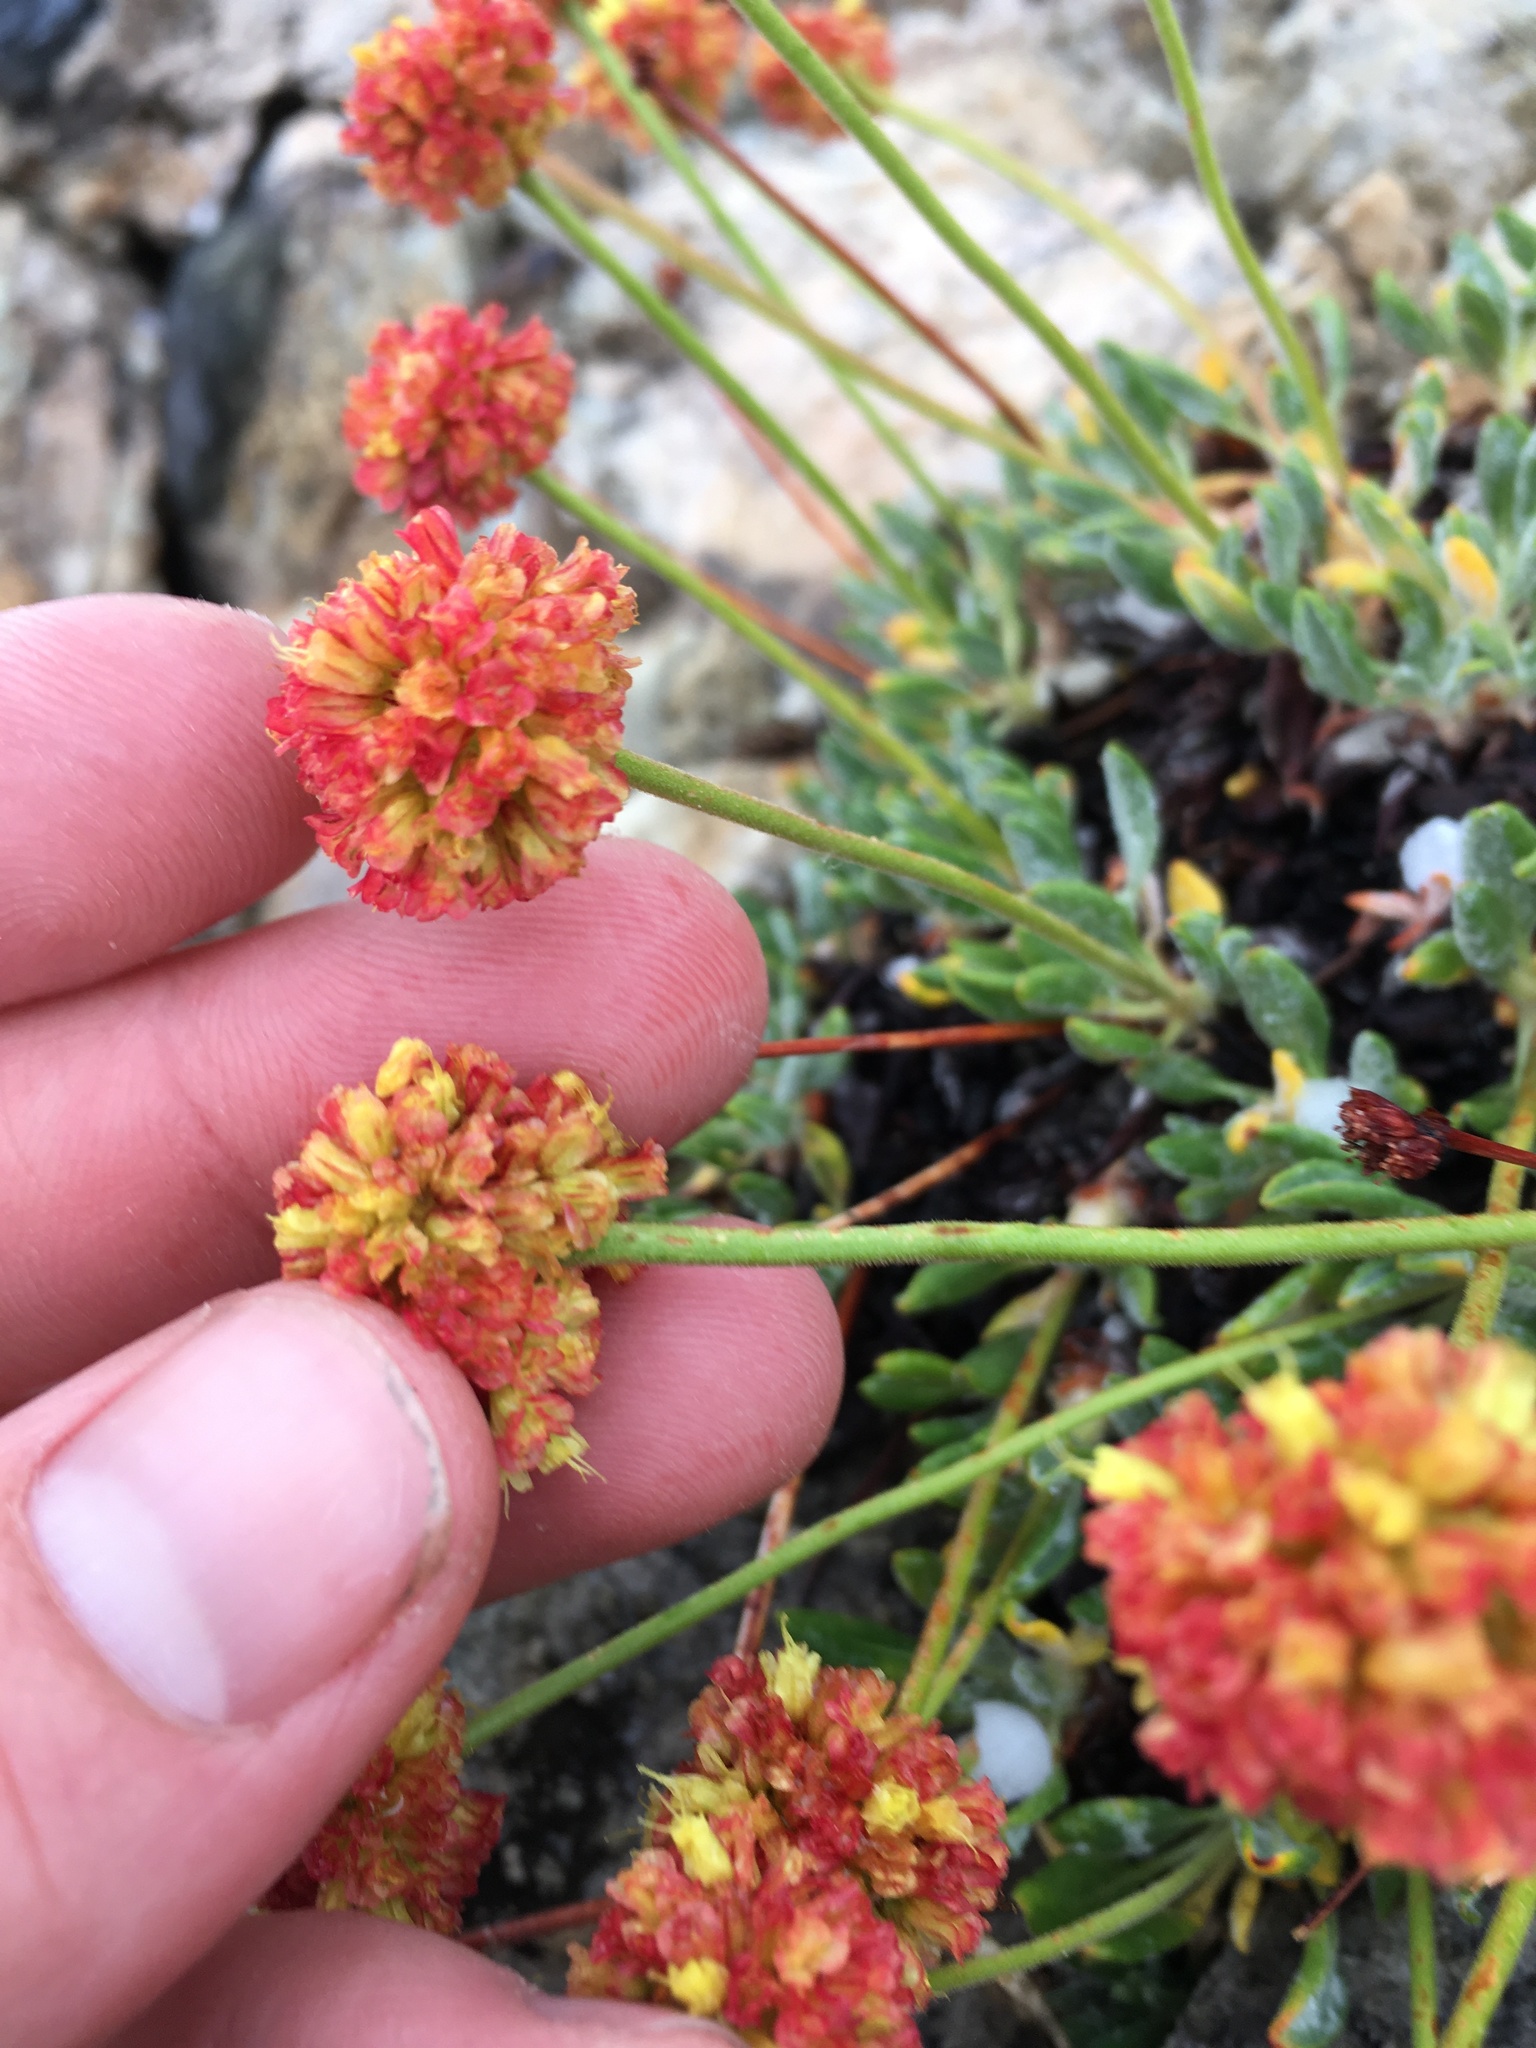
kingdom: Plantae
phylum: Tracheophyta
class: Magnoliopsida
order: Caryophyllales
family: Polygonaceae
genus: Eriogonum
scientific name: Eriogonum rosense
